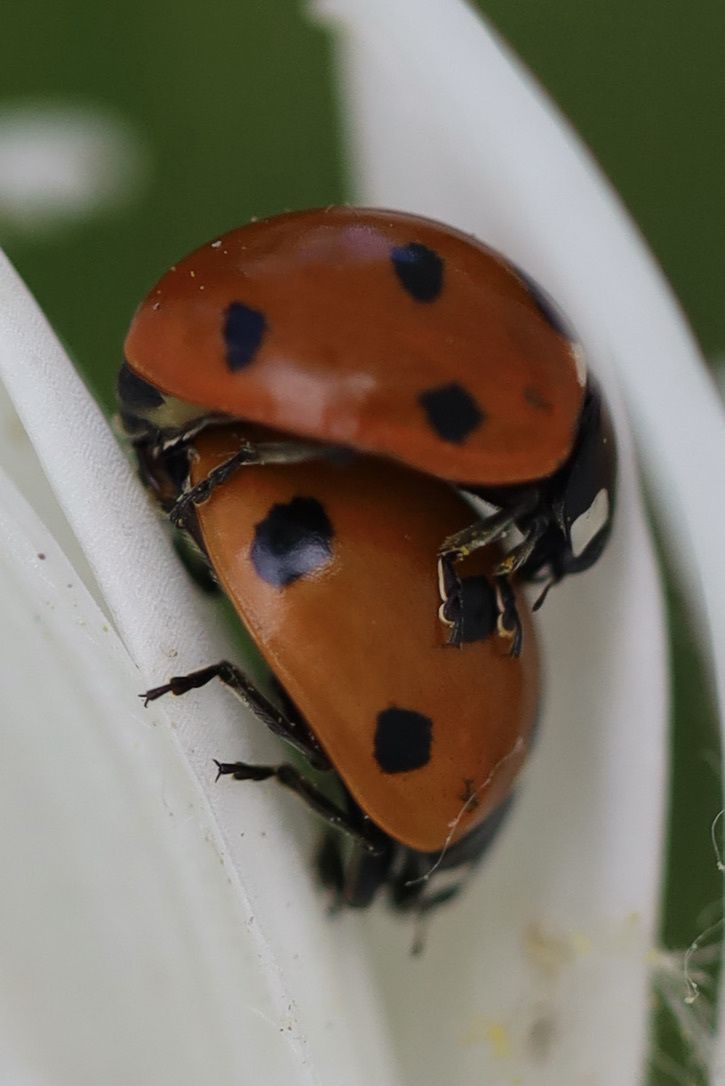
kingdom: Animalia
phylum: Arthropoda
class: Insecta
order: Coleoptera
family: Coccinellidae
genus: Coccinella
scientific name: Coccinella septempunctata
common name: Sevenspotted lady beetle
